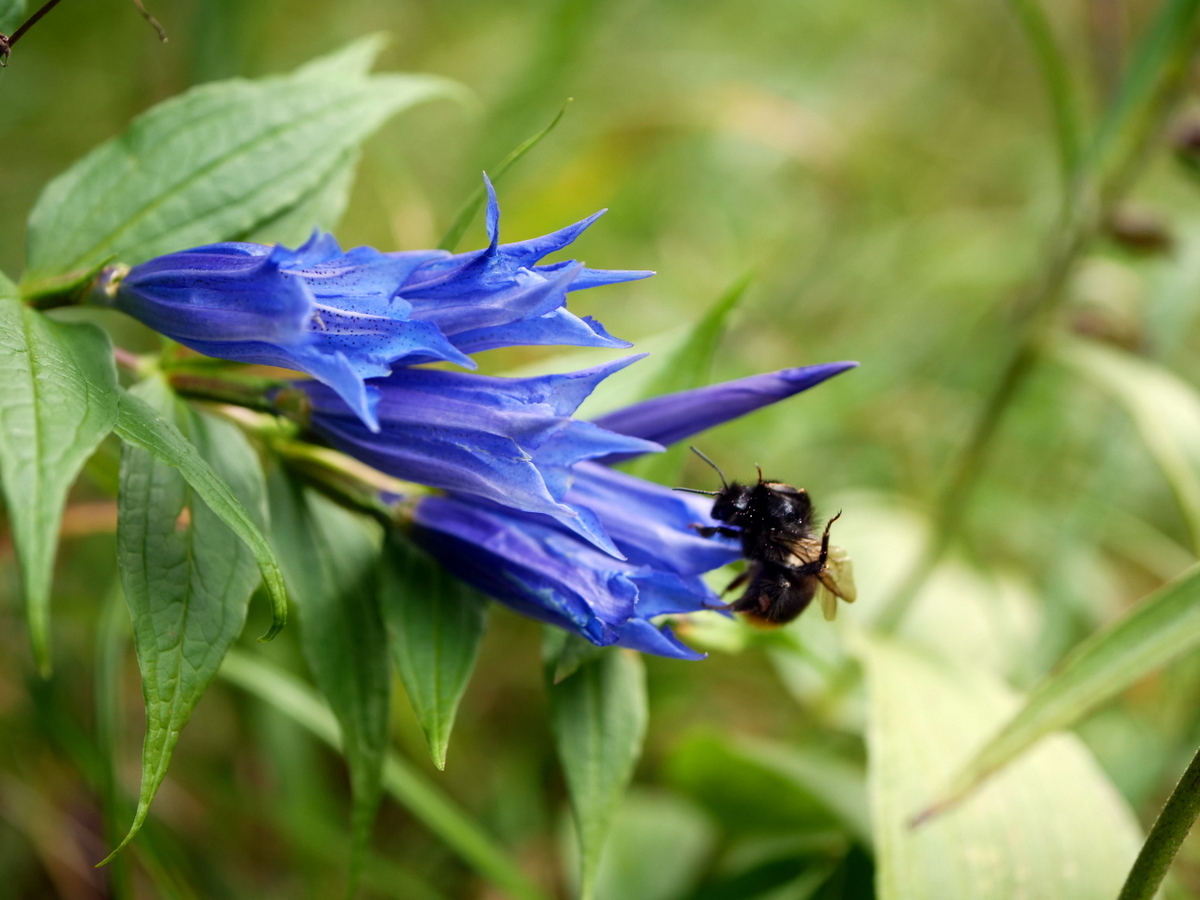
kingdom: Plantae
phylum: Tracheophyta
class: Magnoliopsida
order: Gentianales
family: Gentianaceae
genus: Gentiana
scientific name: Gentiana asclepiadea
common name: Willow gentian
